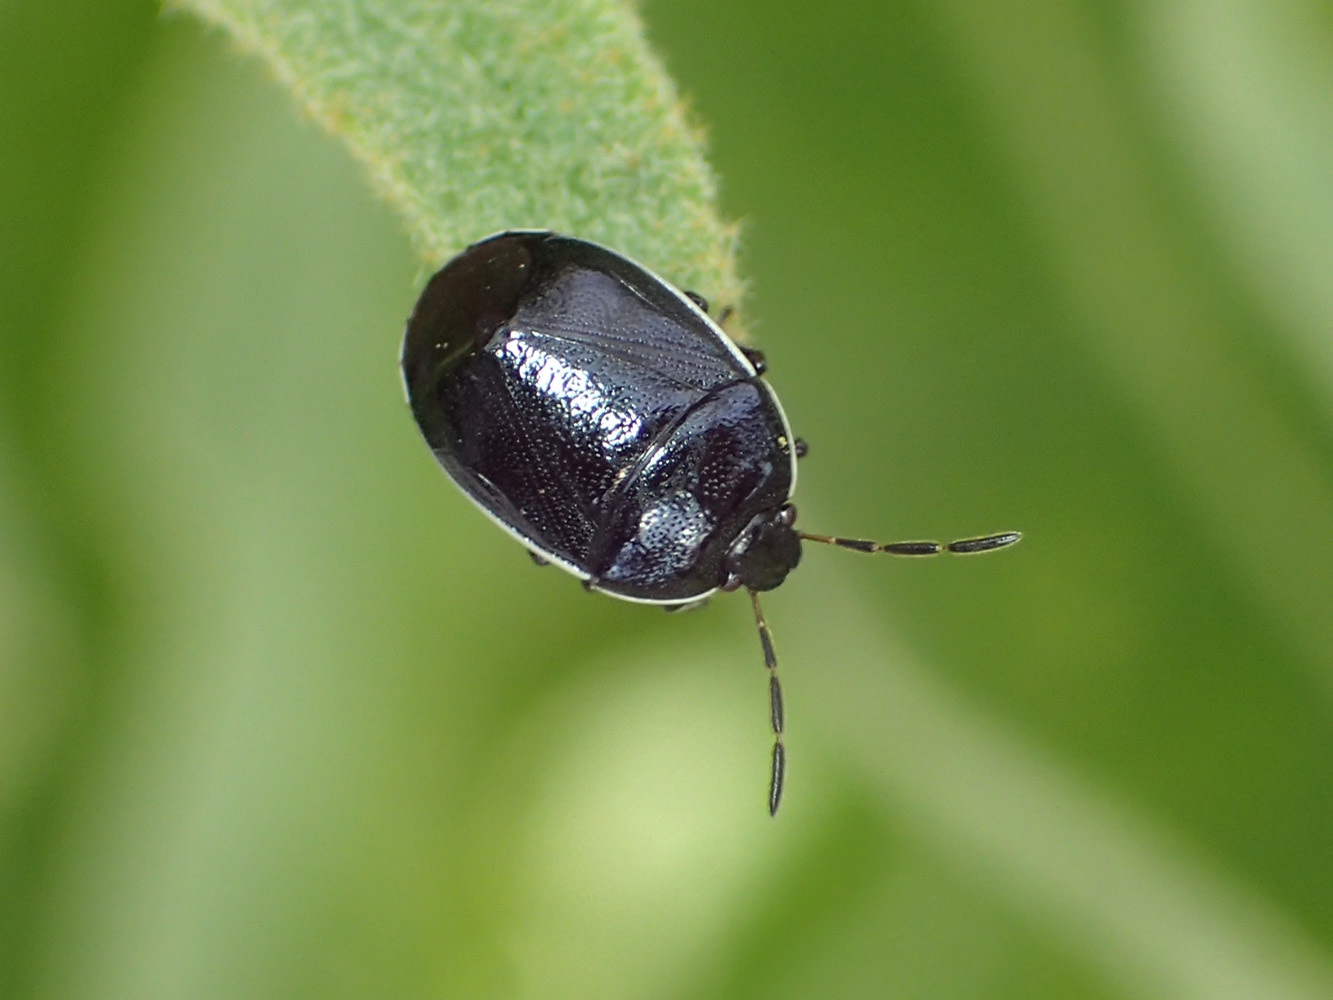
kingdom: Animalia
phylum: Arthropoda
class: Insecta
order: Hemiptera
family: Cydnidae
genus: Sehirus
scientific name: Sehirus cinctus
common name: White-margined burrower bug
